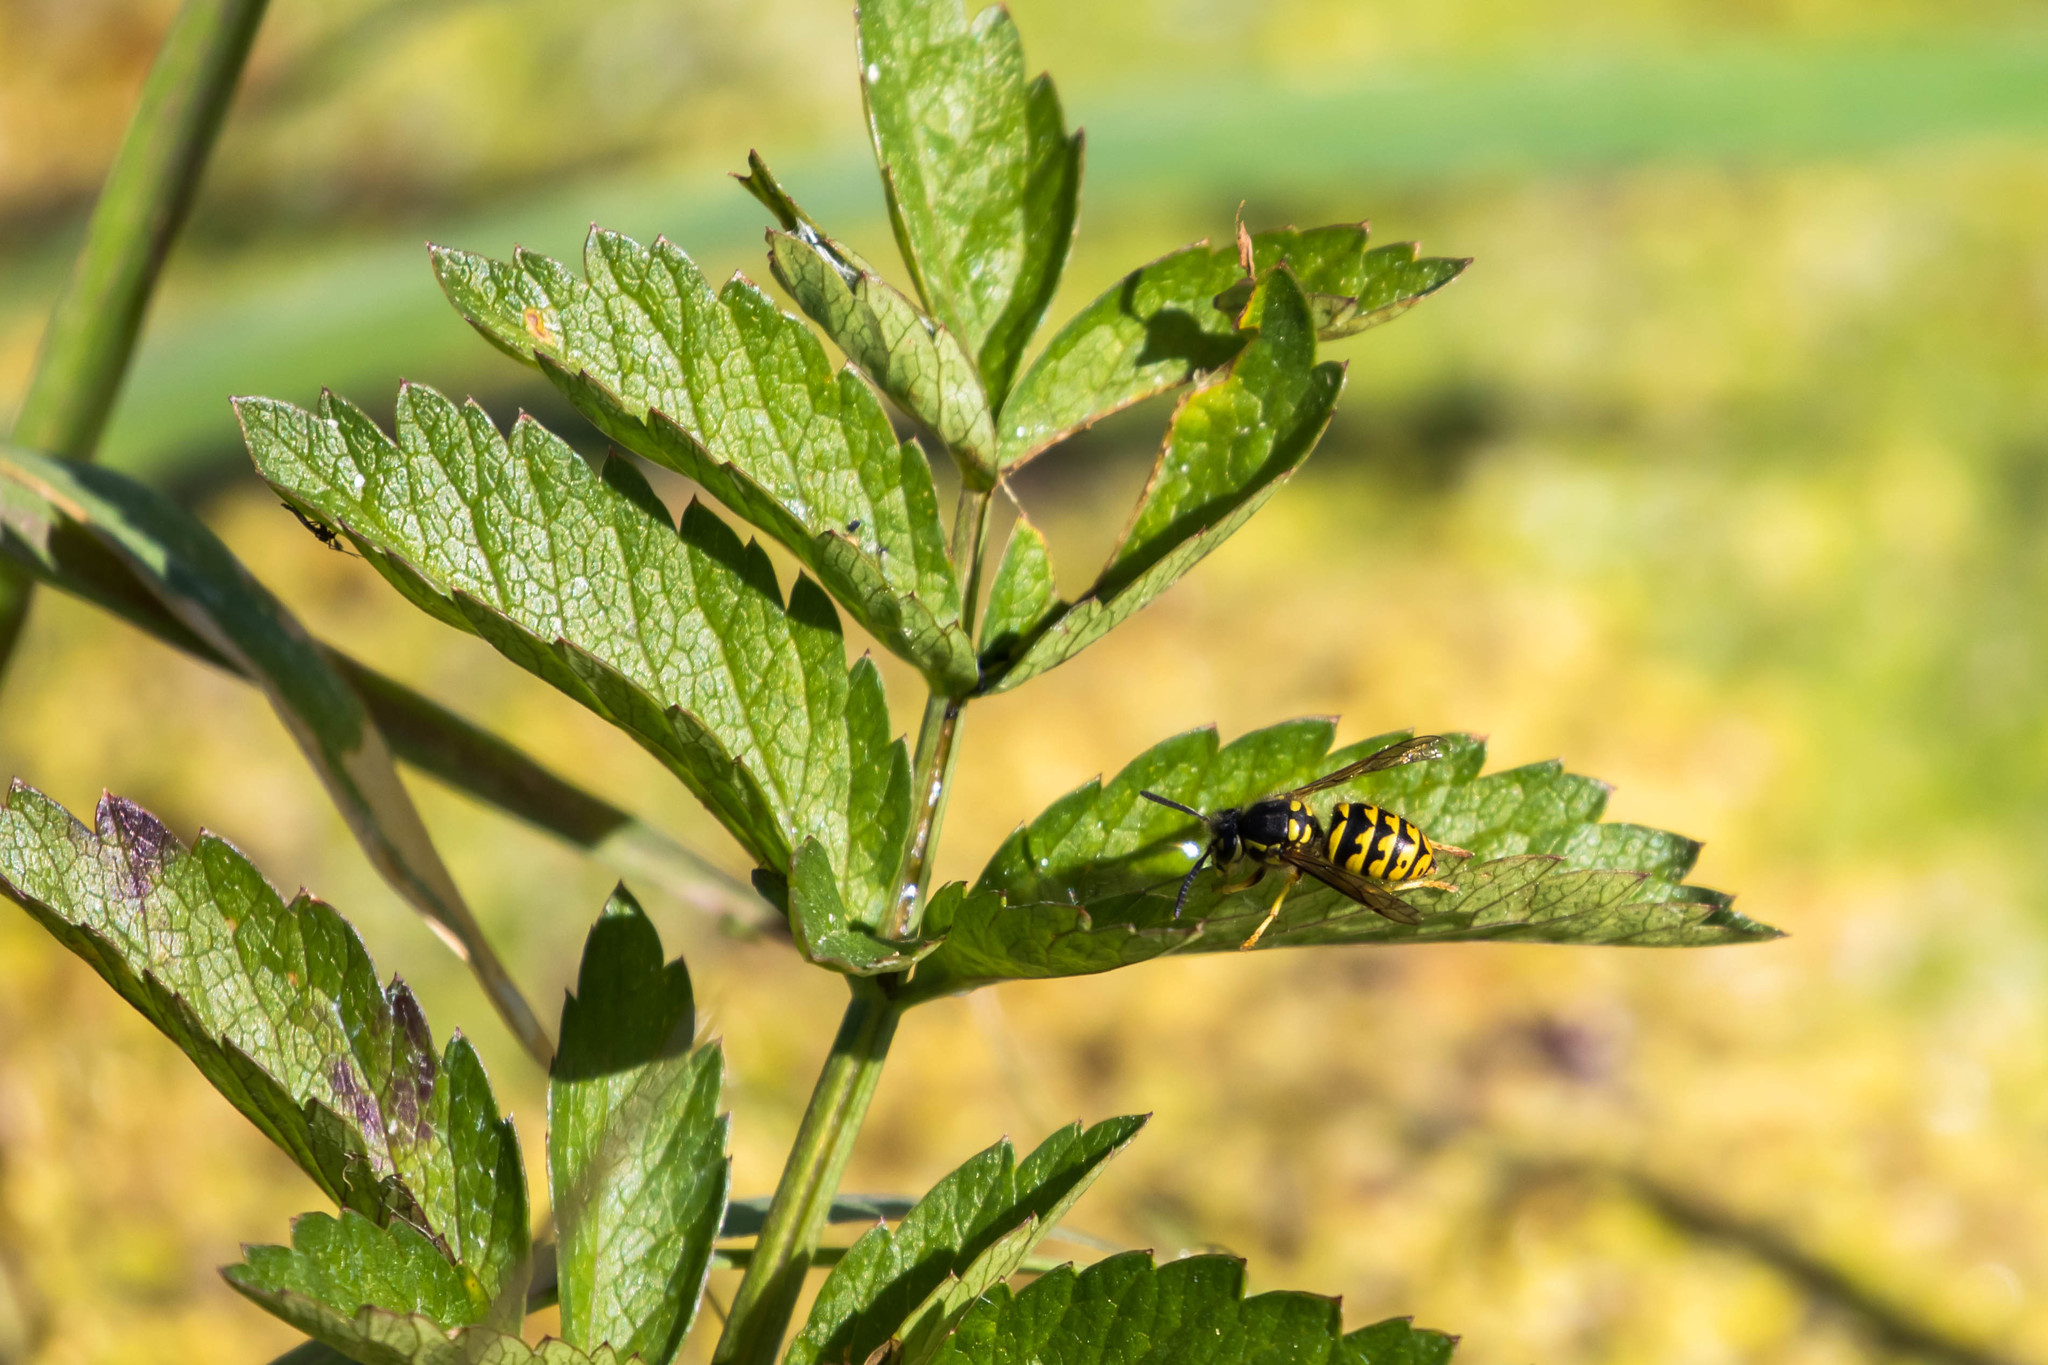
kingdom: Animalia
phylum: Arthropoda
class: Insecta
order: Hymenoptera
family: Vespidae
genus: Dolichovespula
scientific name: Dolichovespula arenaria
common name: Aerial yellowjacket
